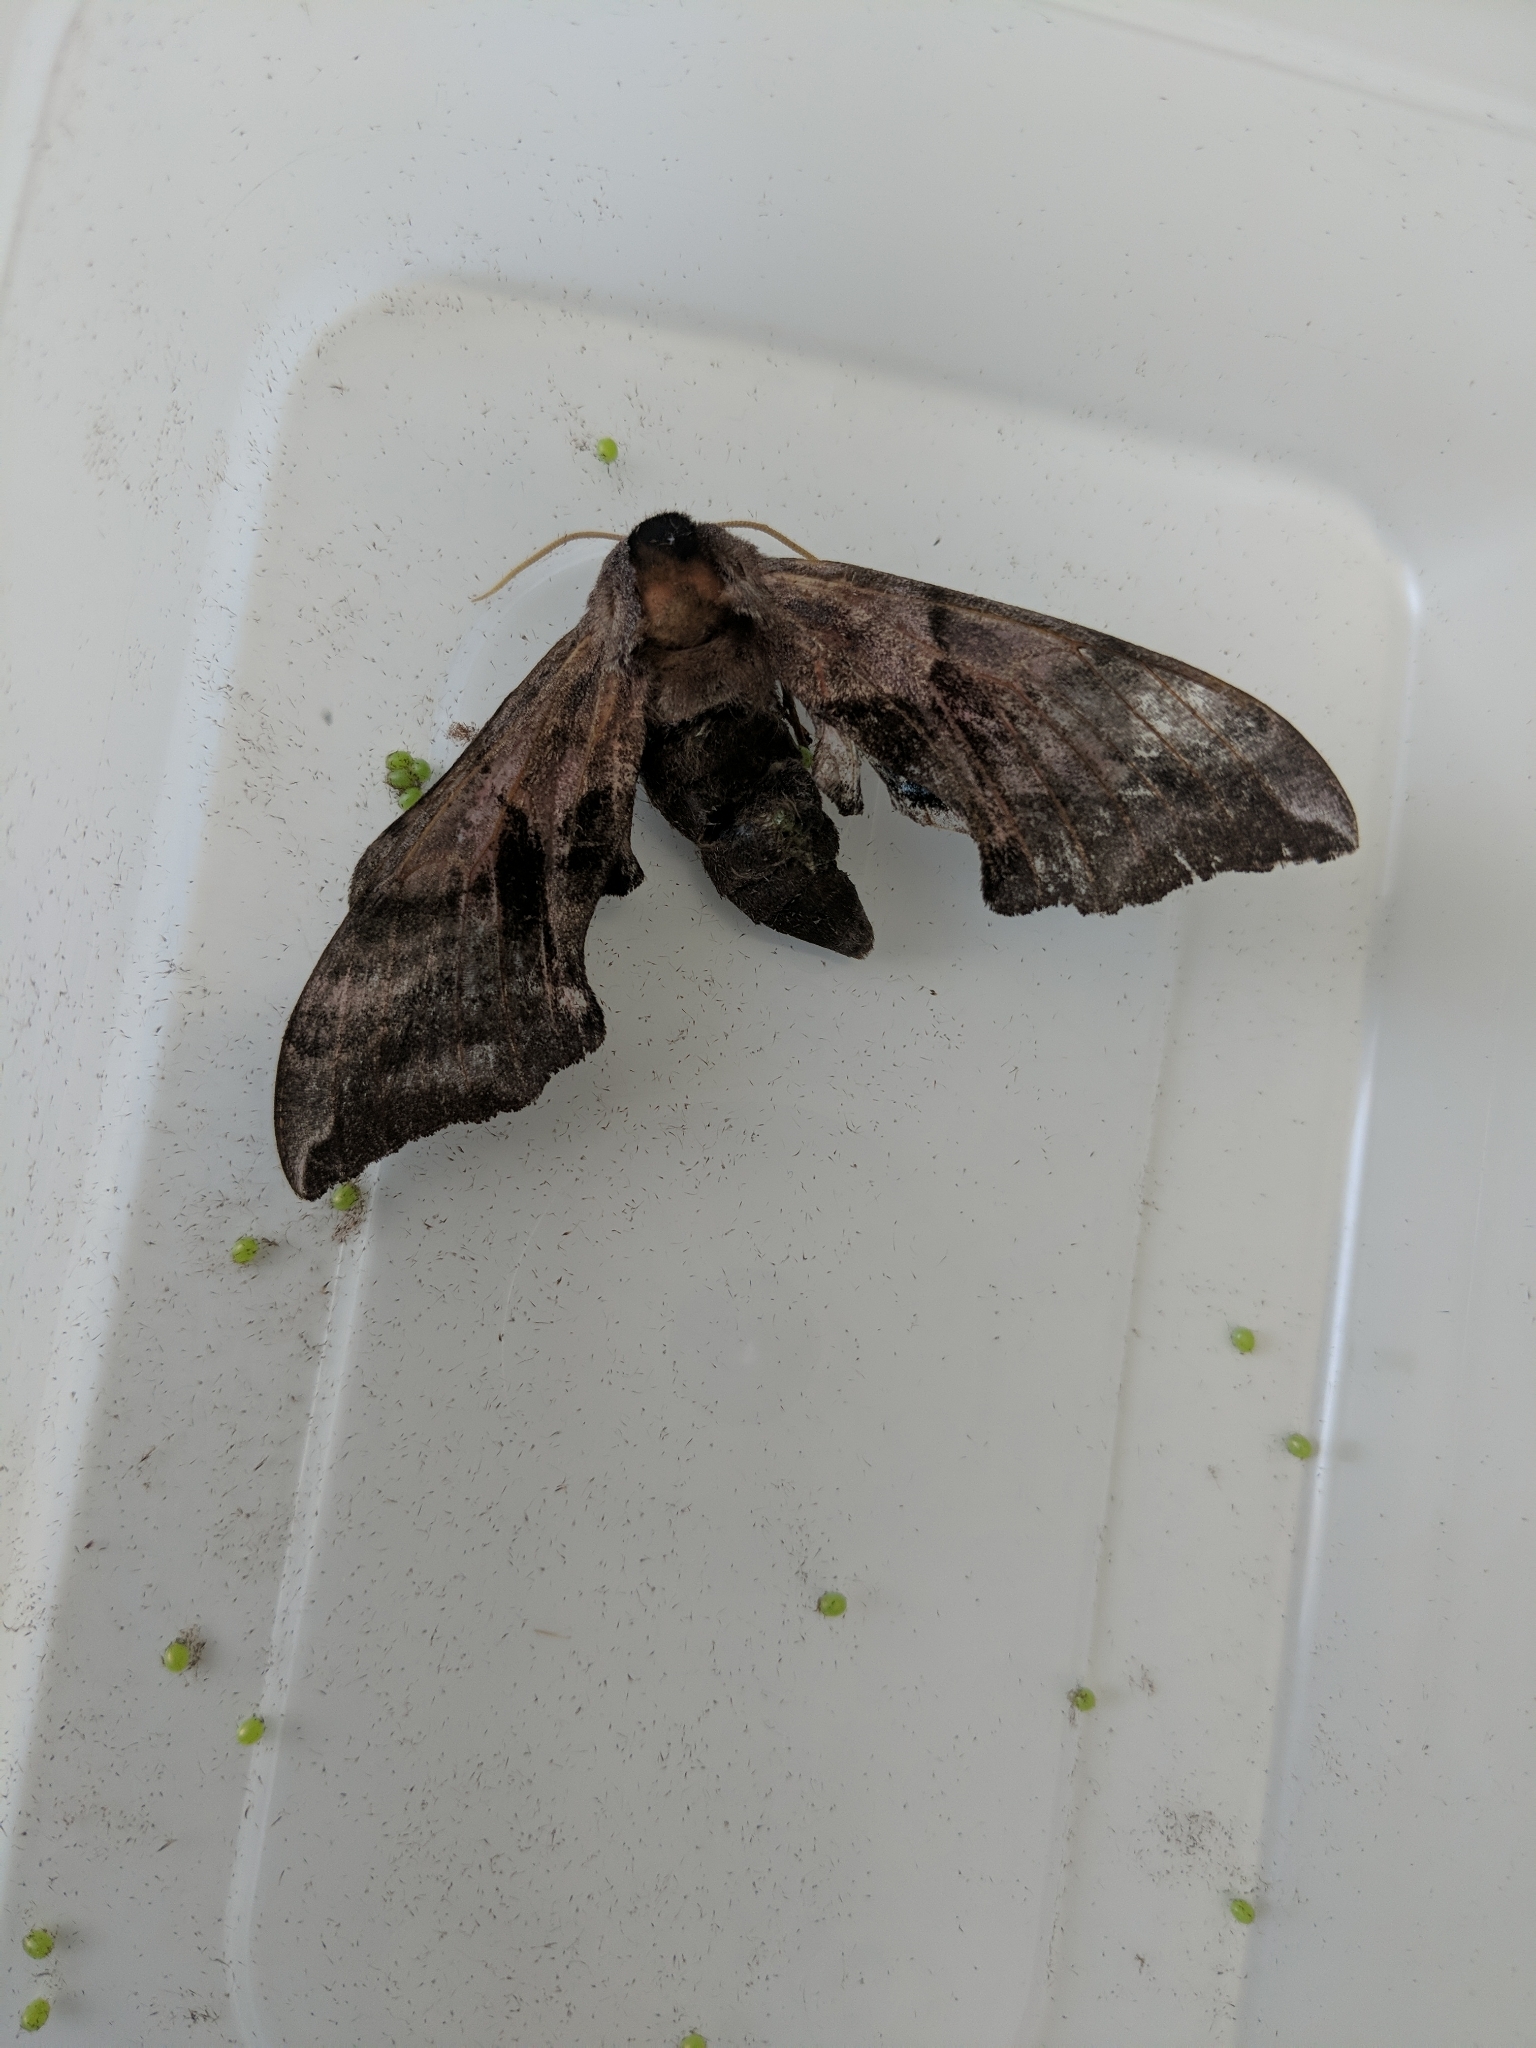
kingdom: Animalia
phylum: Arthropoda
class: Insecta
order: Lepidoptera
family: Sphingidae
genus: Smerinthus
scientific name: Smerinthus ocellata
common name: Eyed hawk-moth
